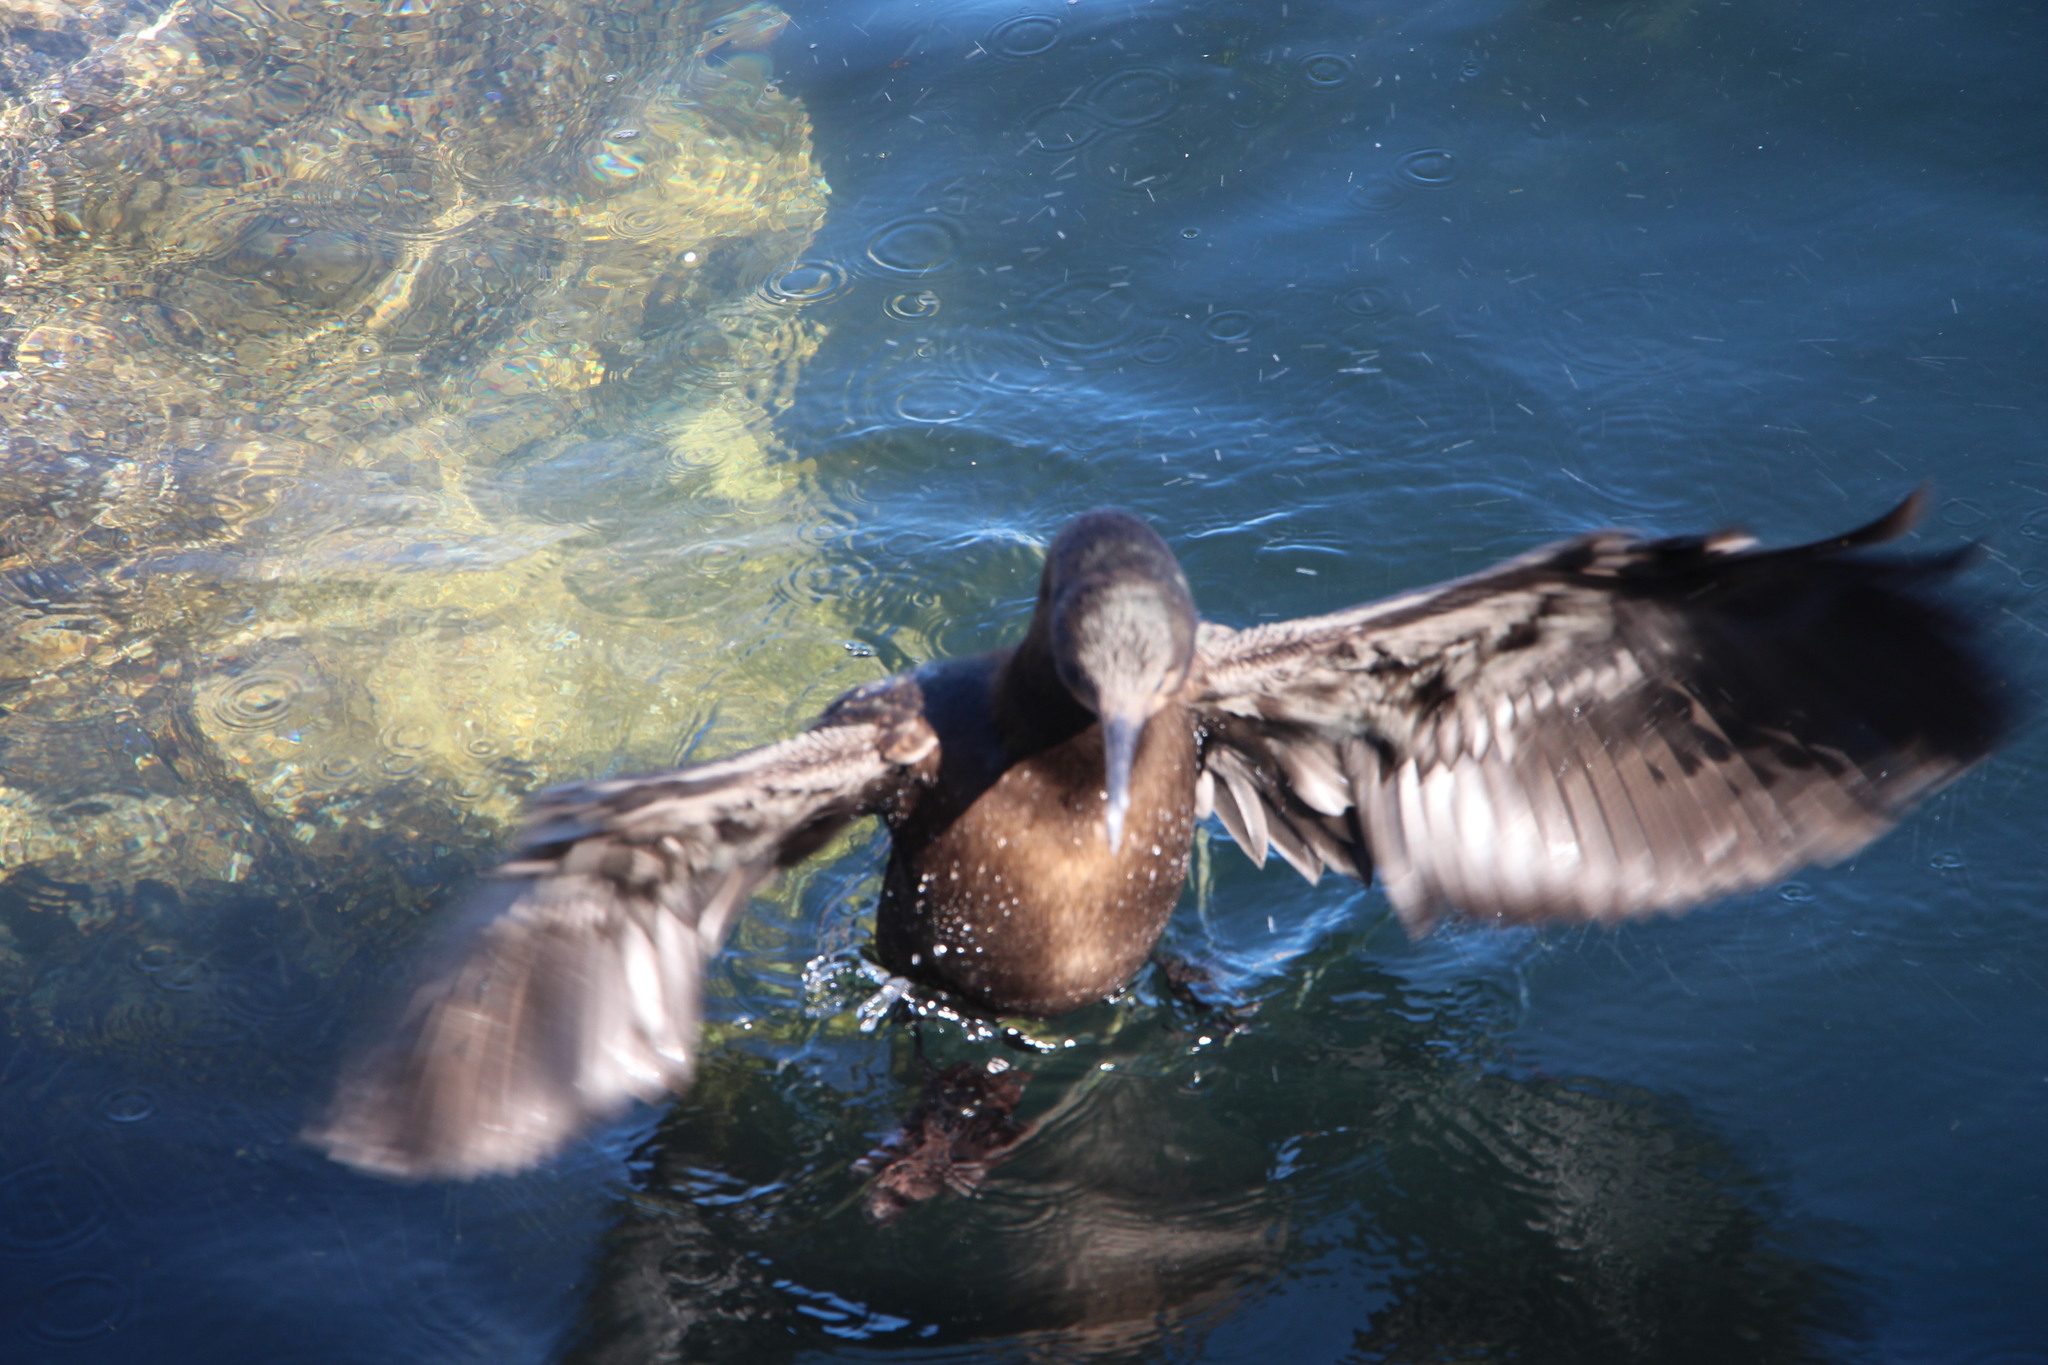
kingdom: Animalia
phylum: Chordata
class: Aves
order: Suliformes
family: Phalacrocoracidae
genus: Urile
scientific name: Urile penicillatus
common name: Brandt's cormorant
